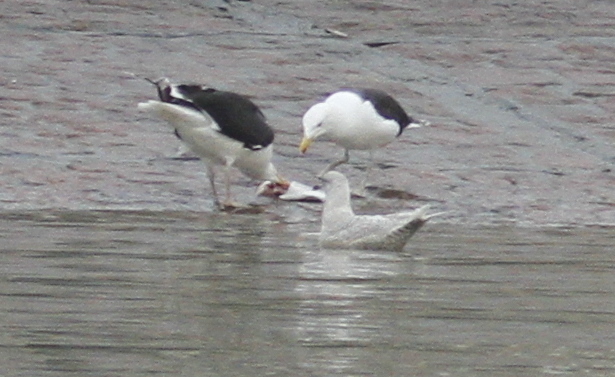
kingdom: Animalia
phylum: Chordata
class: Aves
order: Charadriiformes
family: Laridae
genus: Larus
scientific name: Larus glaucoides
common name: Iceland gull
